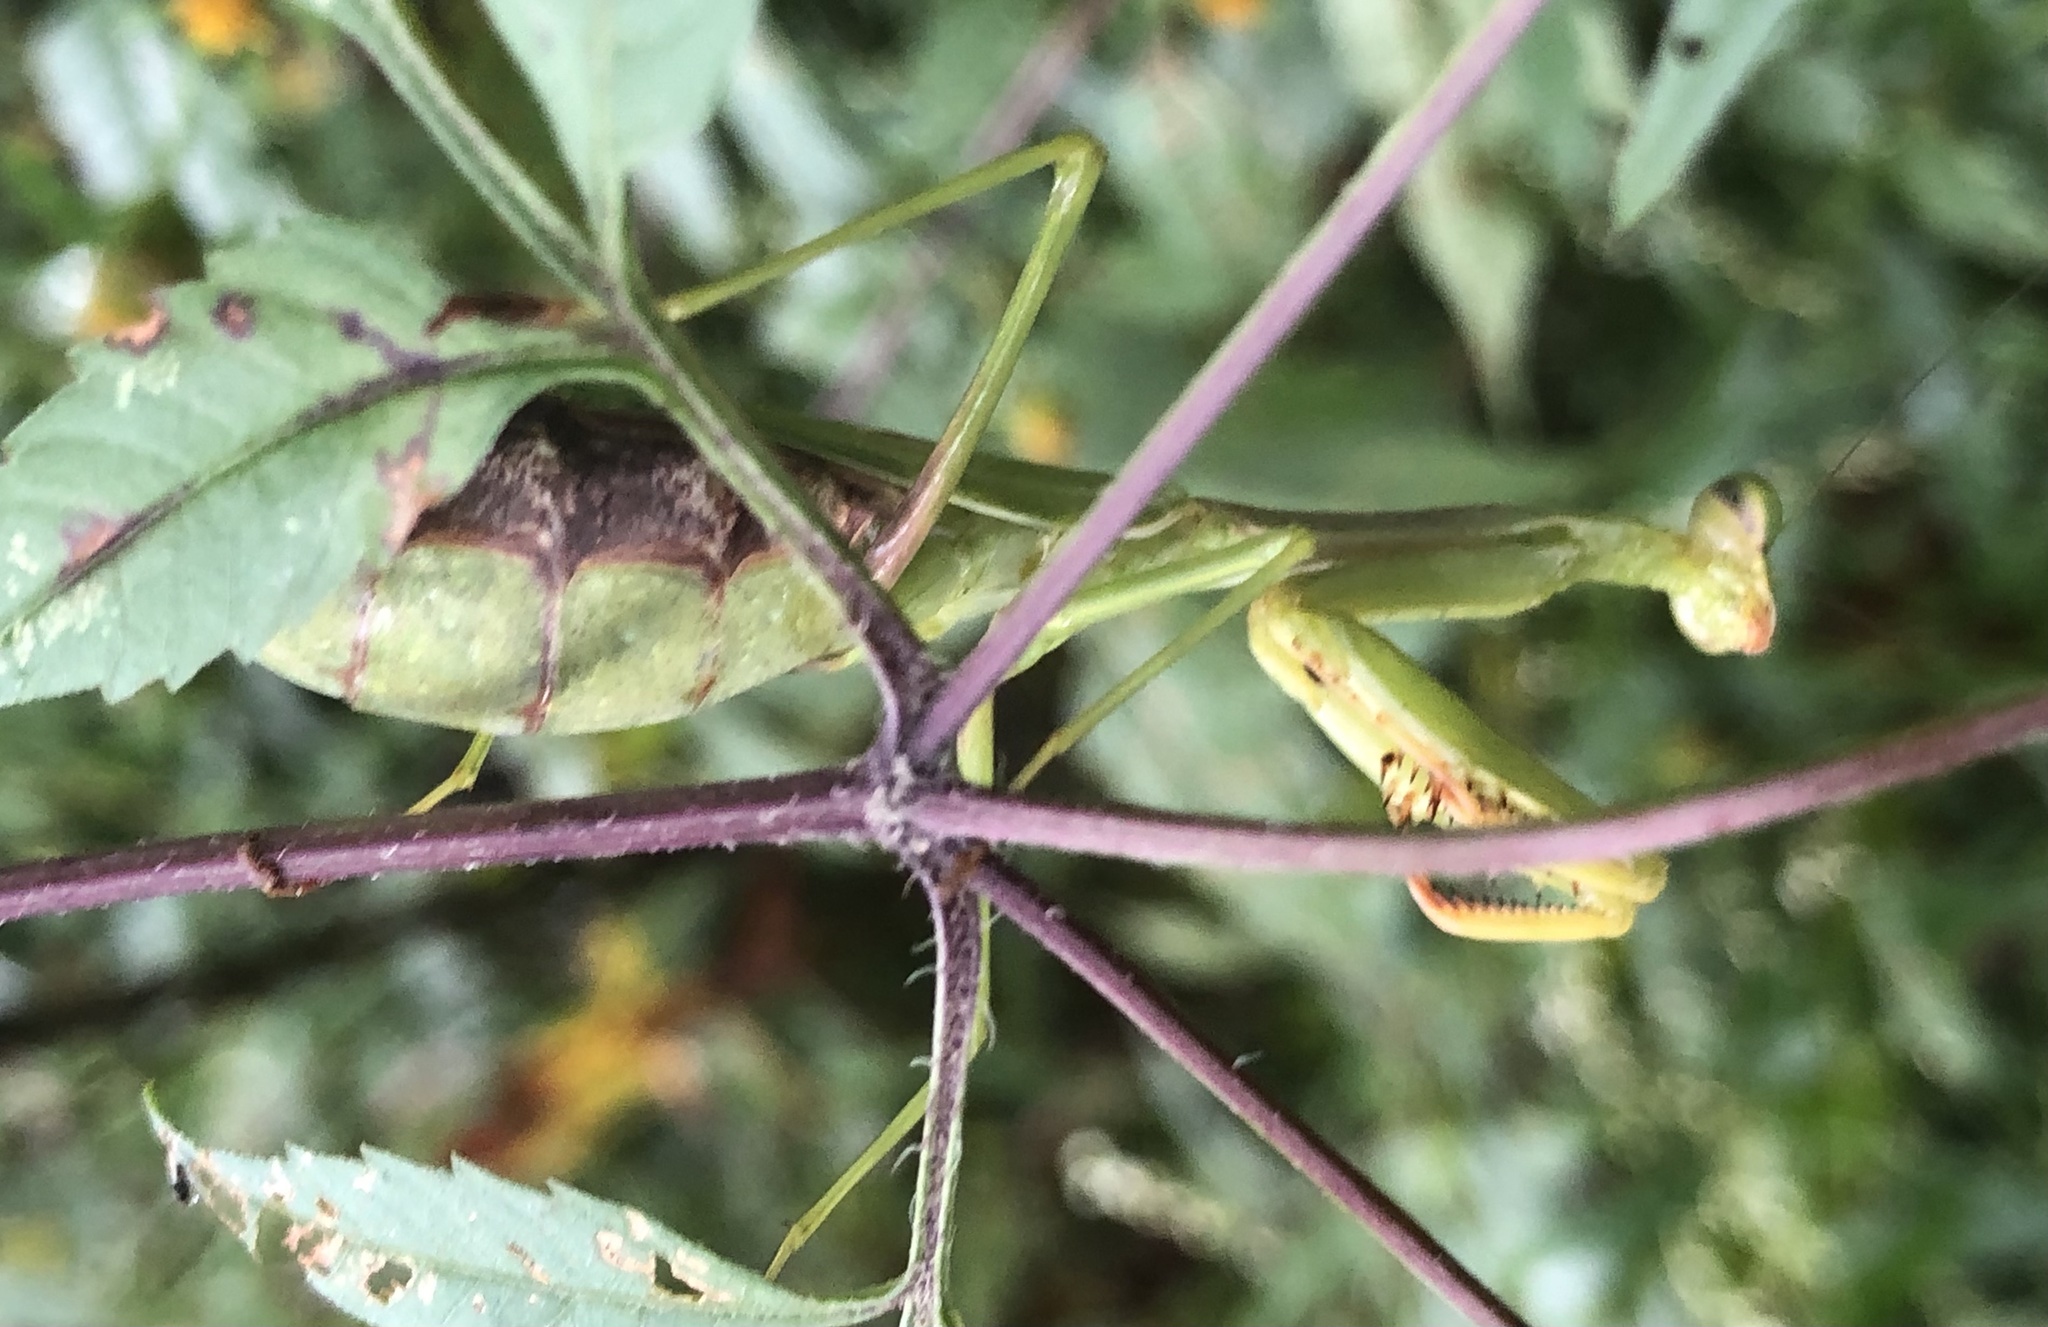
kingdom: Animalia
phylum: Arthropoda
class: Insecta
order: Mantodea
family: Mantidae
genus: Stagmomantis
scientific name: Stagmomantis carolina
